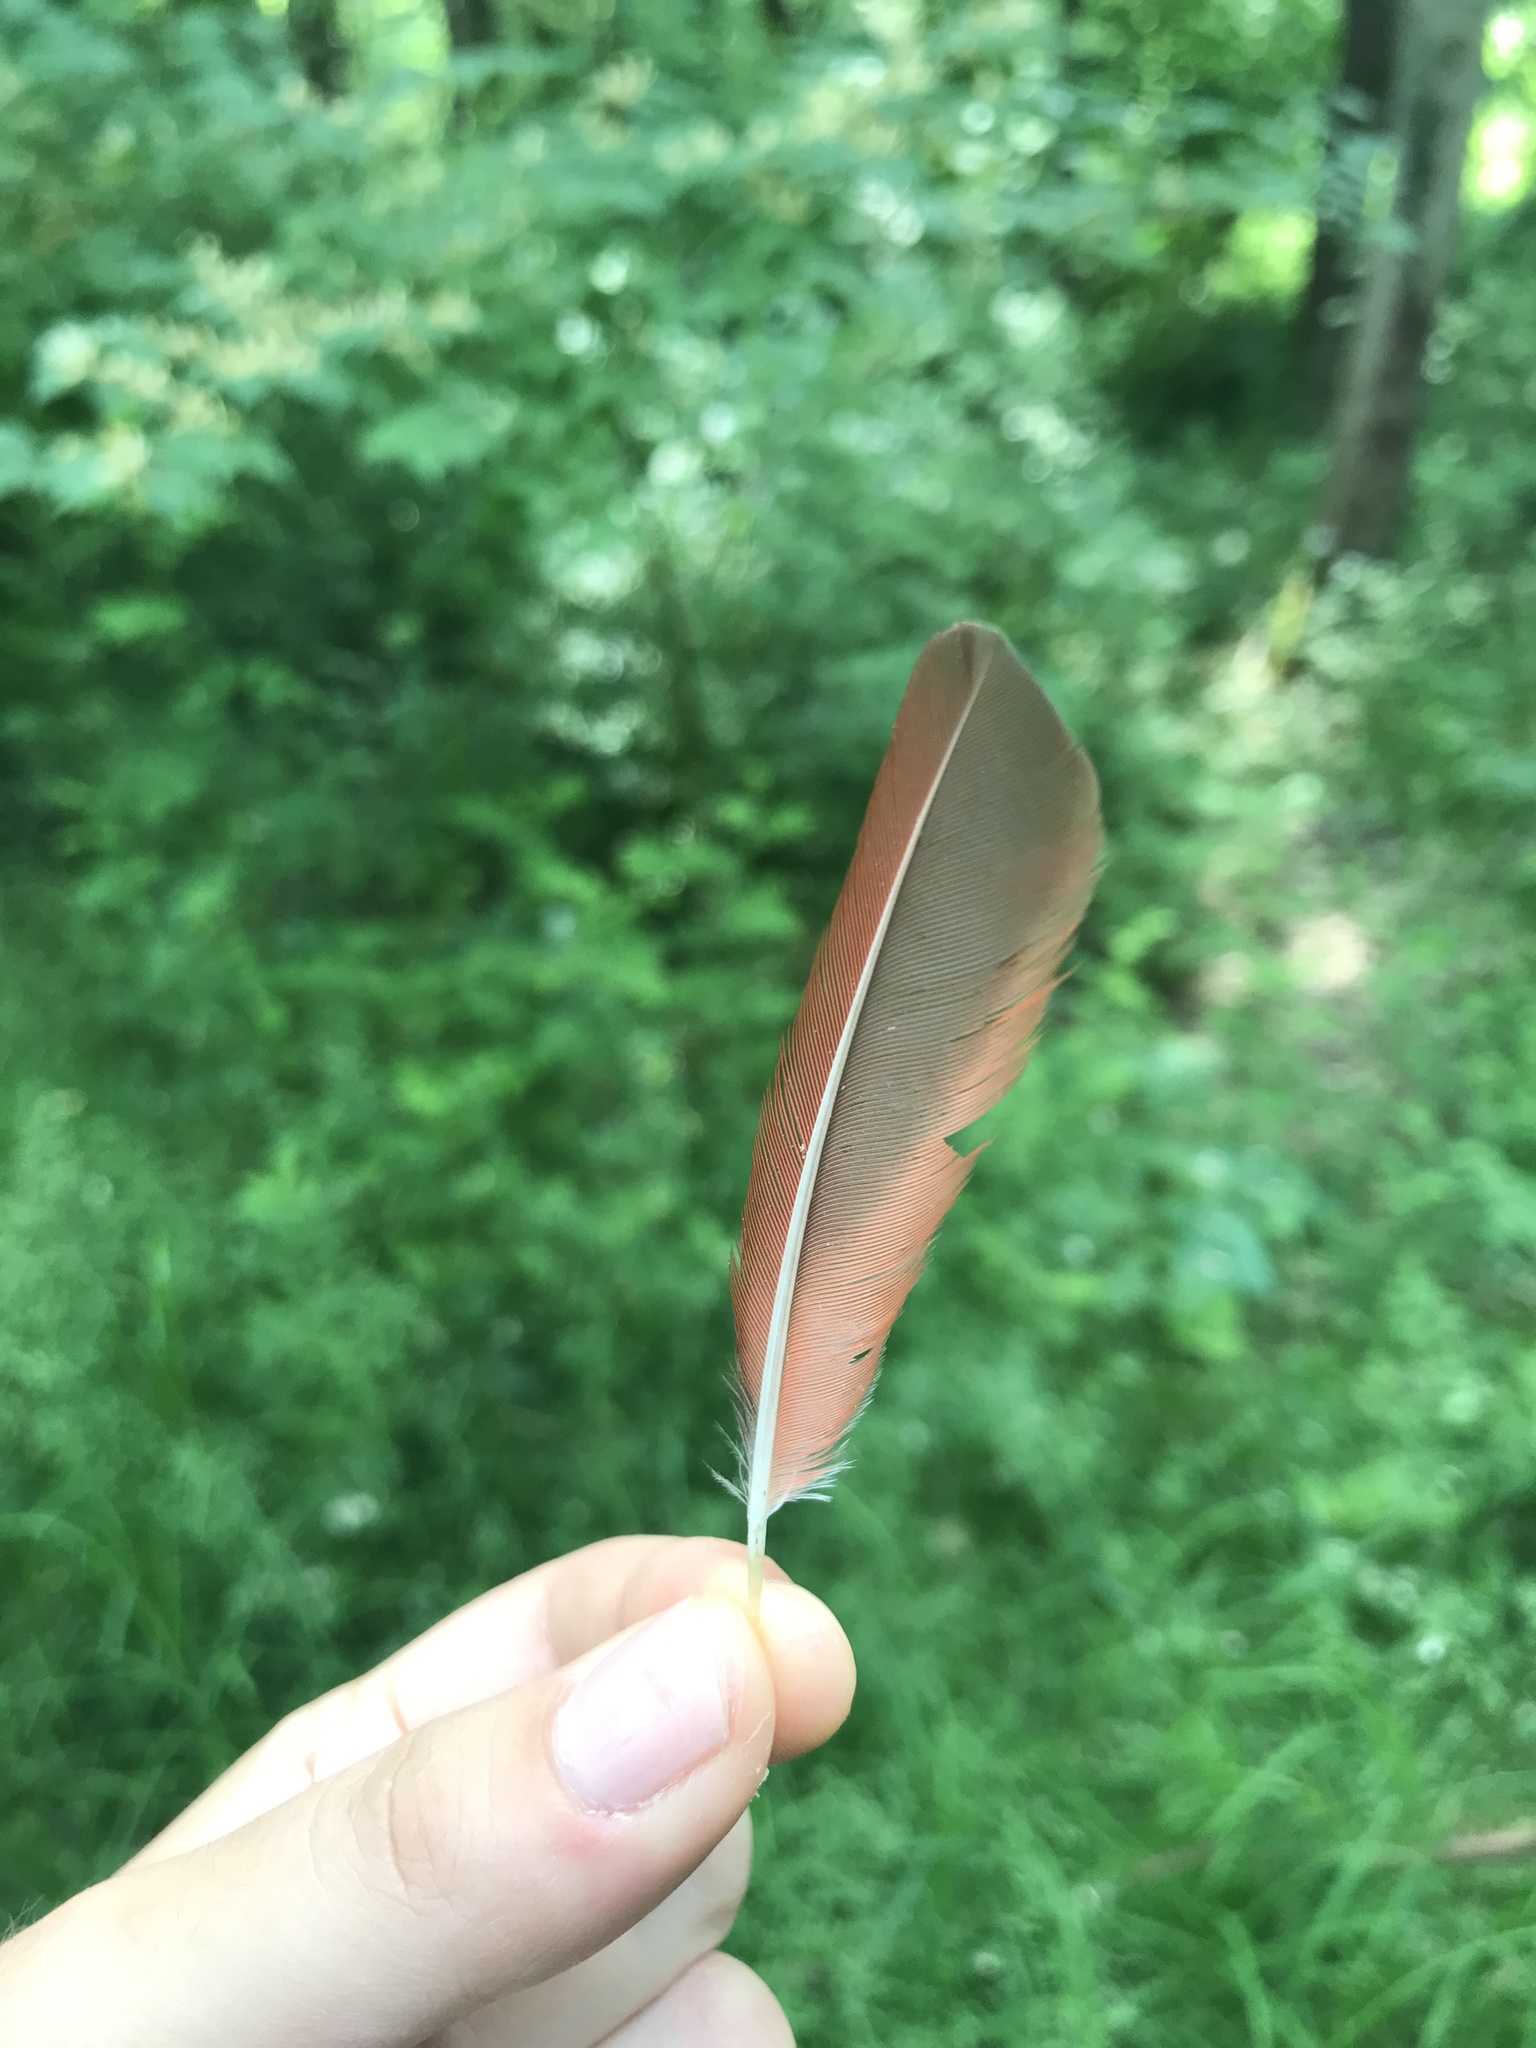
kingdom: Animalia
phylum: Chordata
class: Aves
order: Passeriformes
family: Cardinalidae
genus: Cardinalis
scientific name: Cardinalis cardinalis
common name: Northern cardinal
